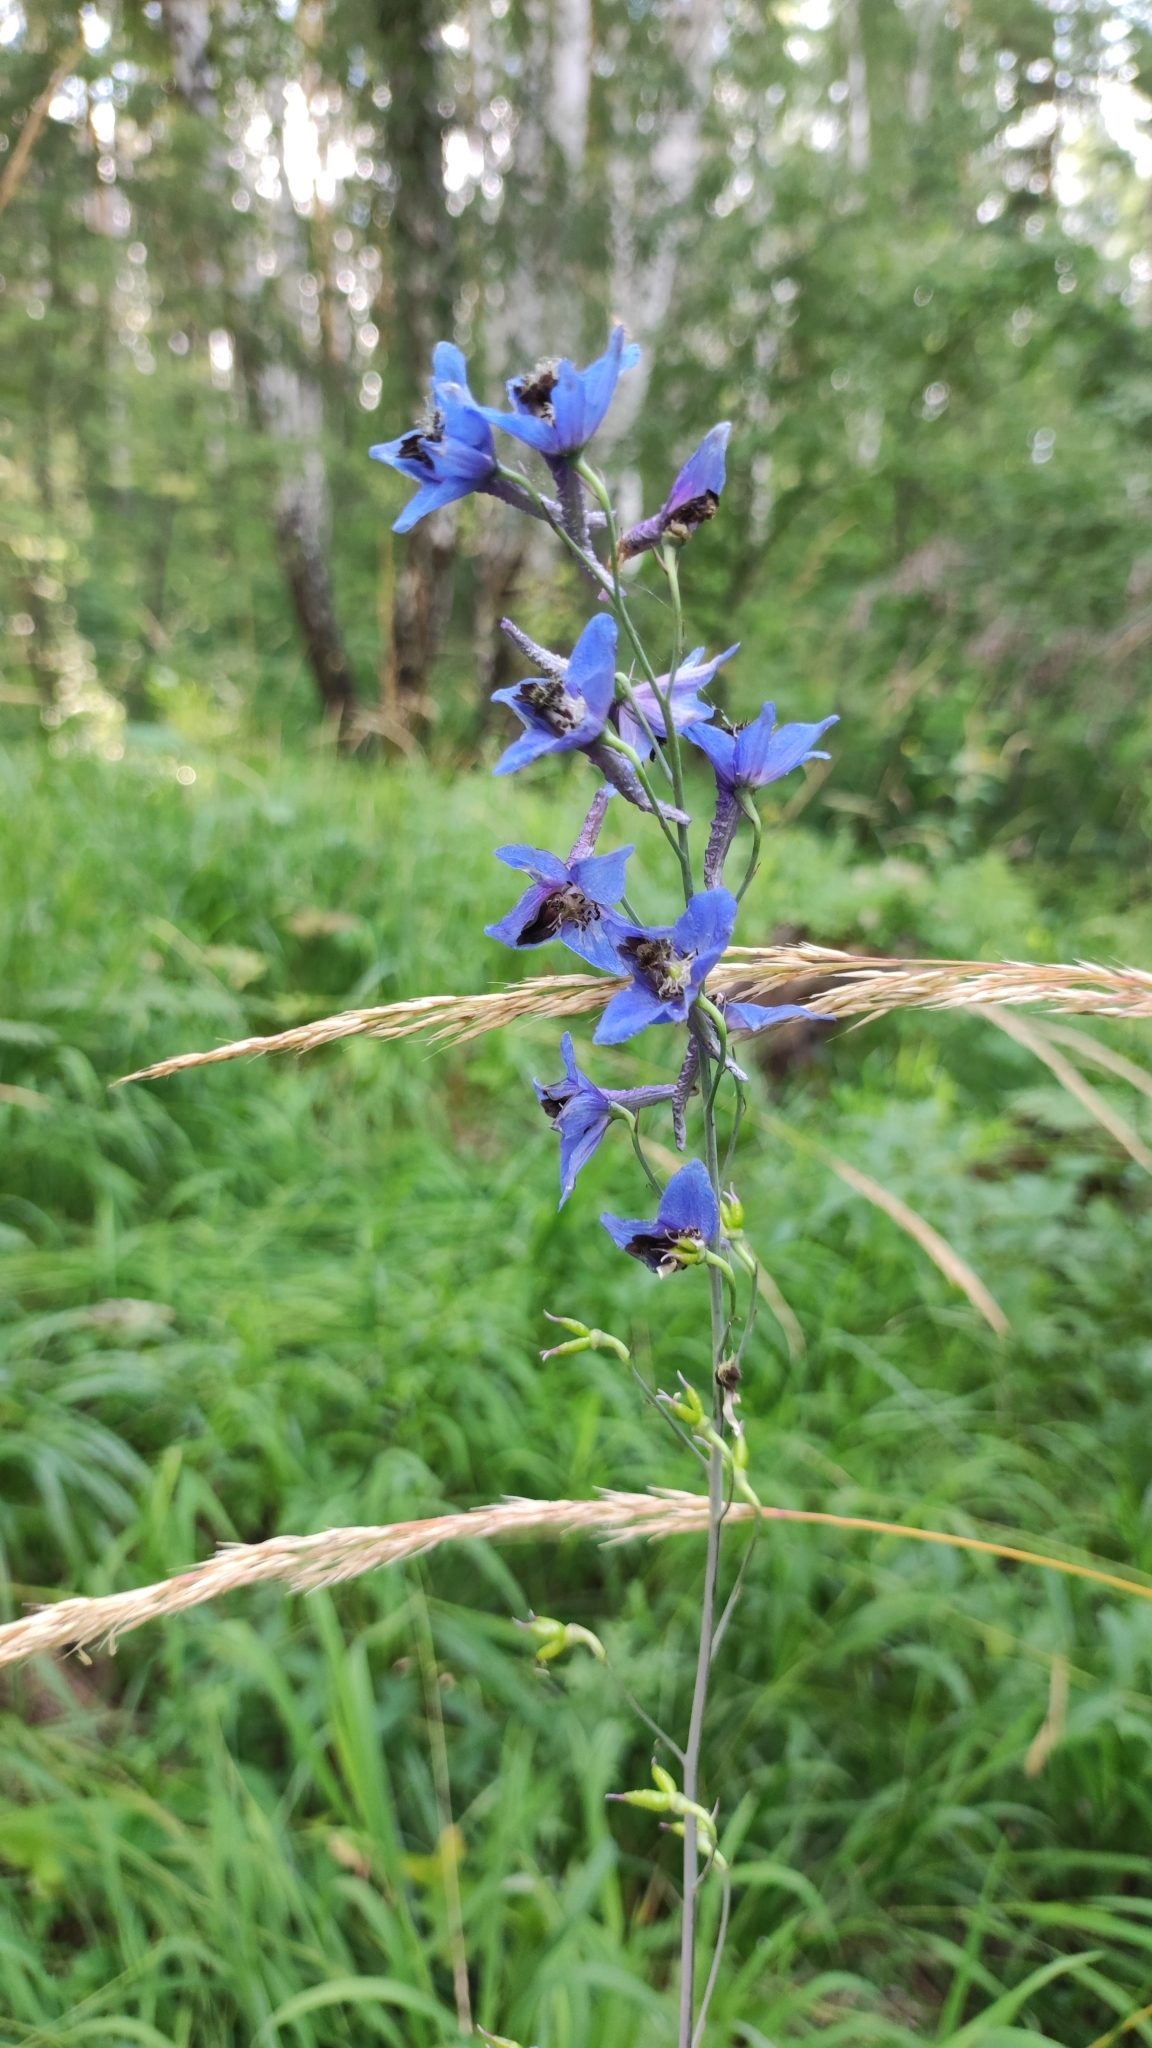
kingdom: Plantae
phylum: Tracheophyta
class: Magnoliopsida
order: Ranunculales
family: Ranunculaceae
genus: Delphinium
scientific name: Delphinium elatum
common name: Candle larkspur
